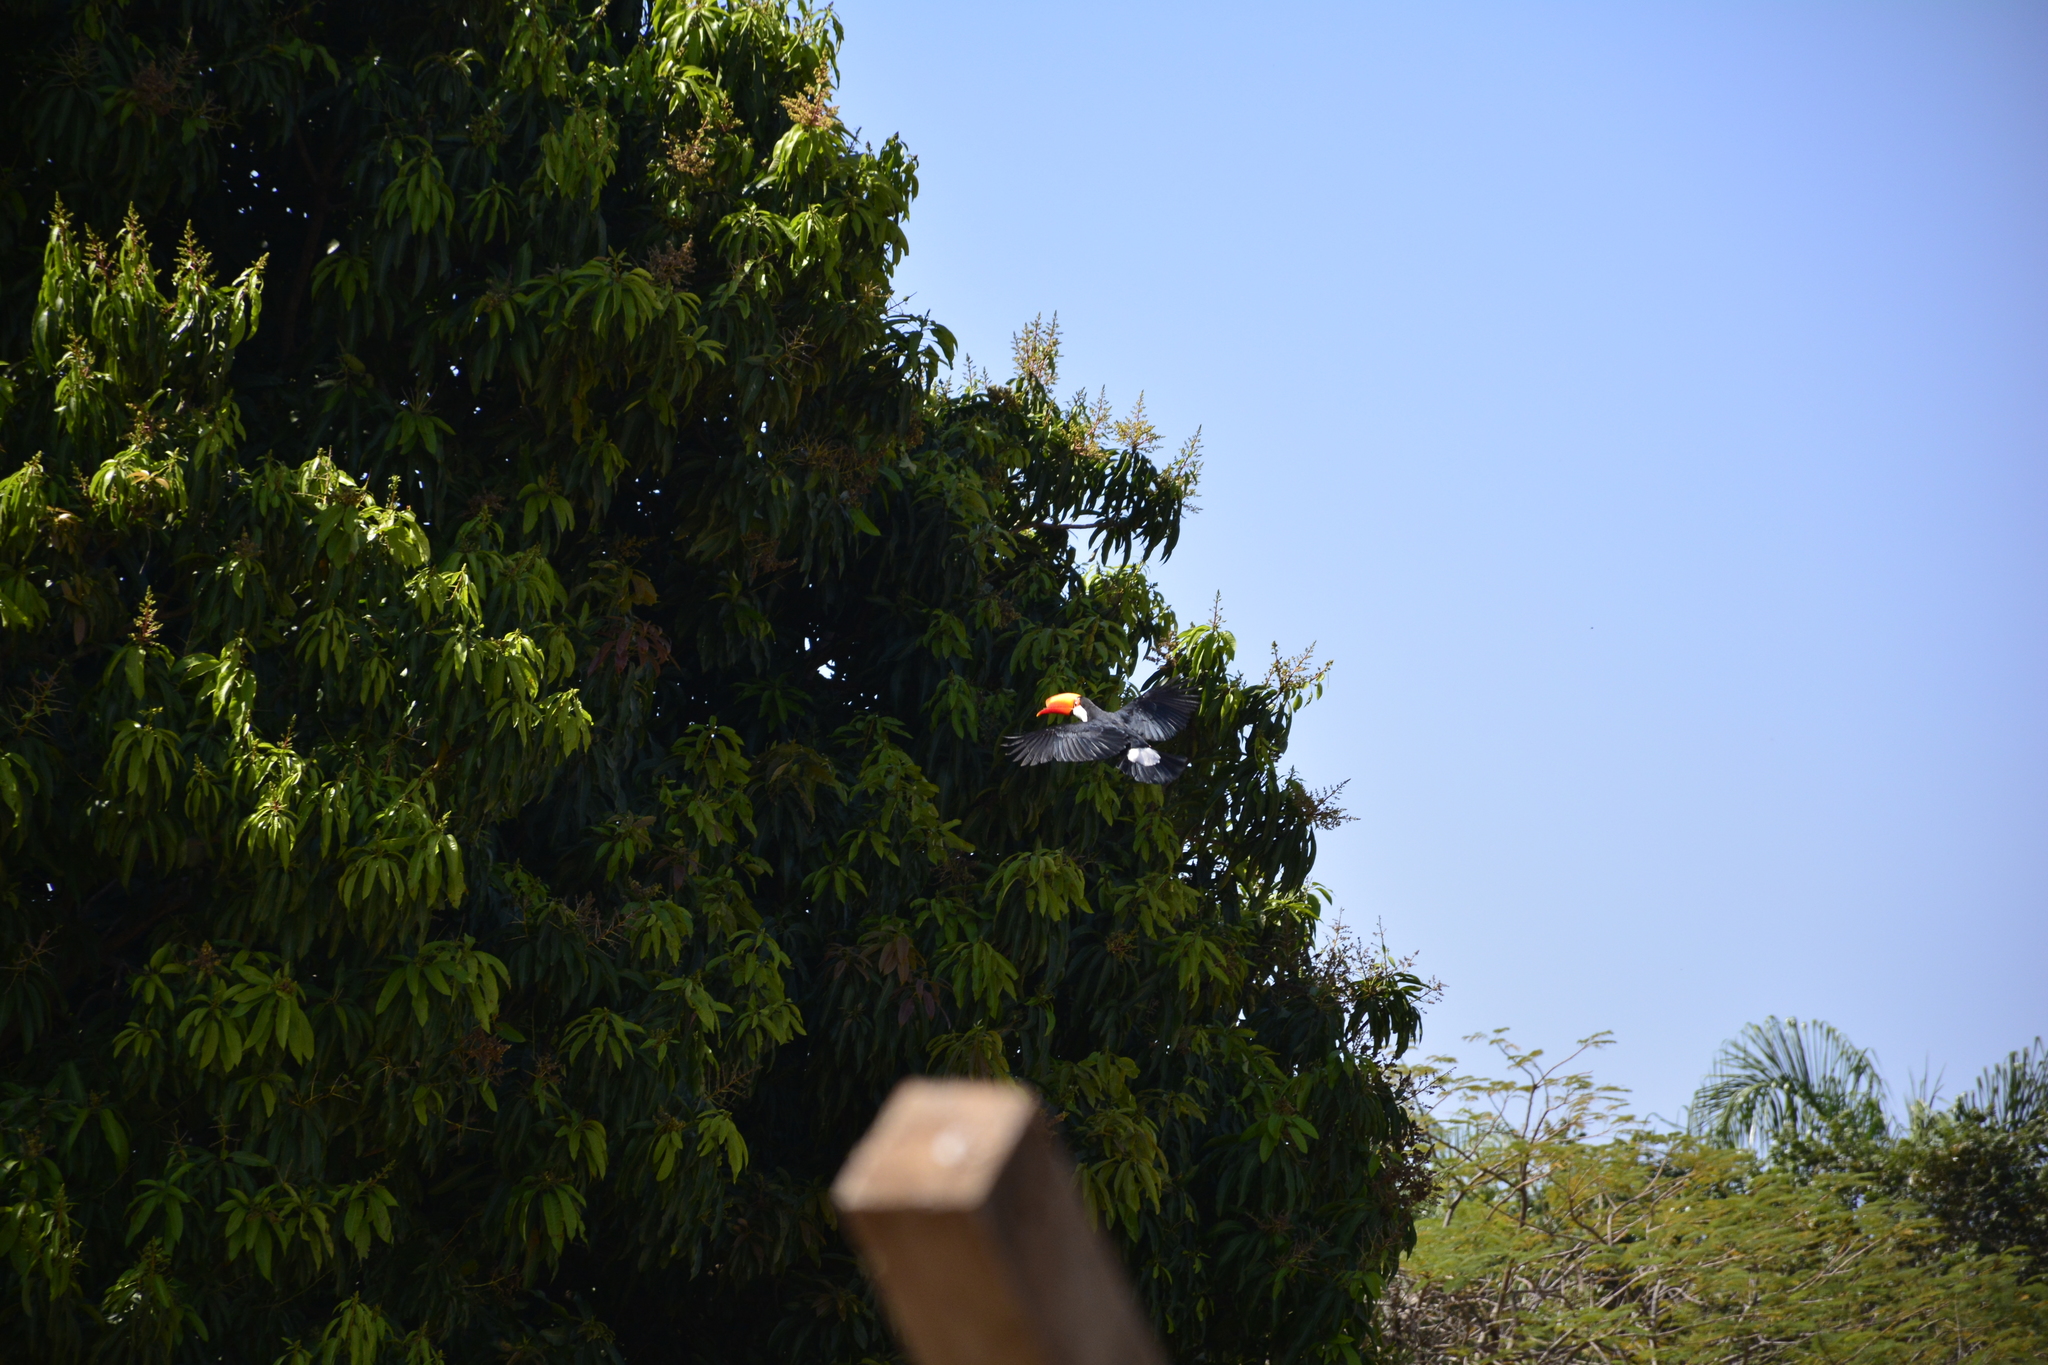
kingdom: Animalia
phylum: Chordata
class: Aves
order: Piciformes
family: Ramphastidae
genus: Ramphastos
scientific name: Ramphastos toco
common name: Toco toucan
